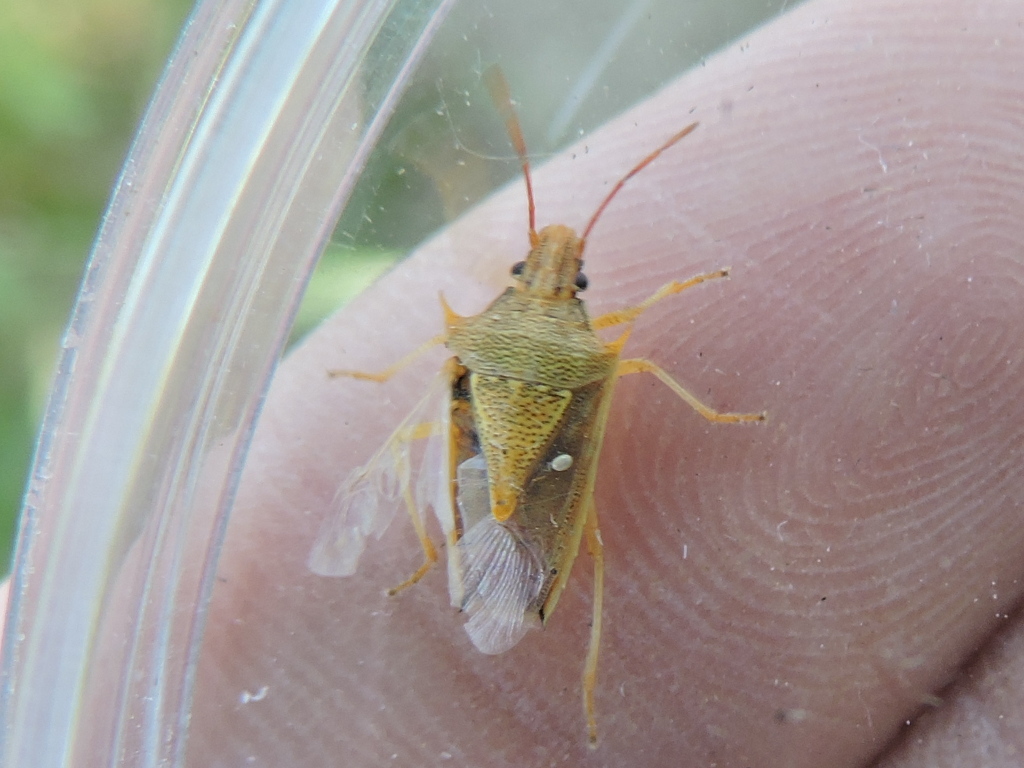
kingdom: Animalia
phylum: Arthropoda
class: Insecta
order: Hemiptera
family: Pentatomidae
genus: Oebalus
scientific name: Oebalus pugnax
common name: Rice stink bug
